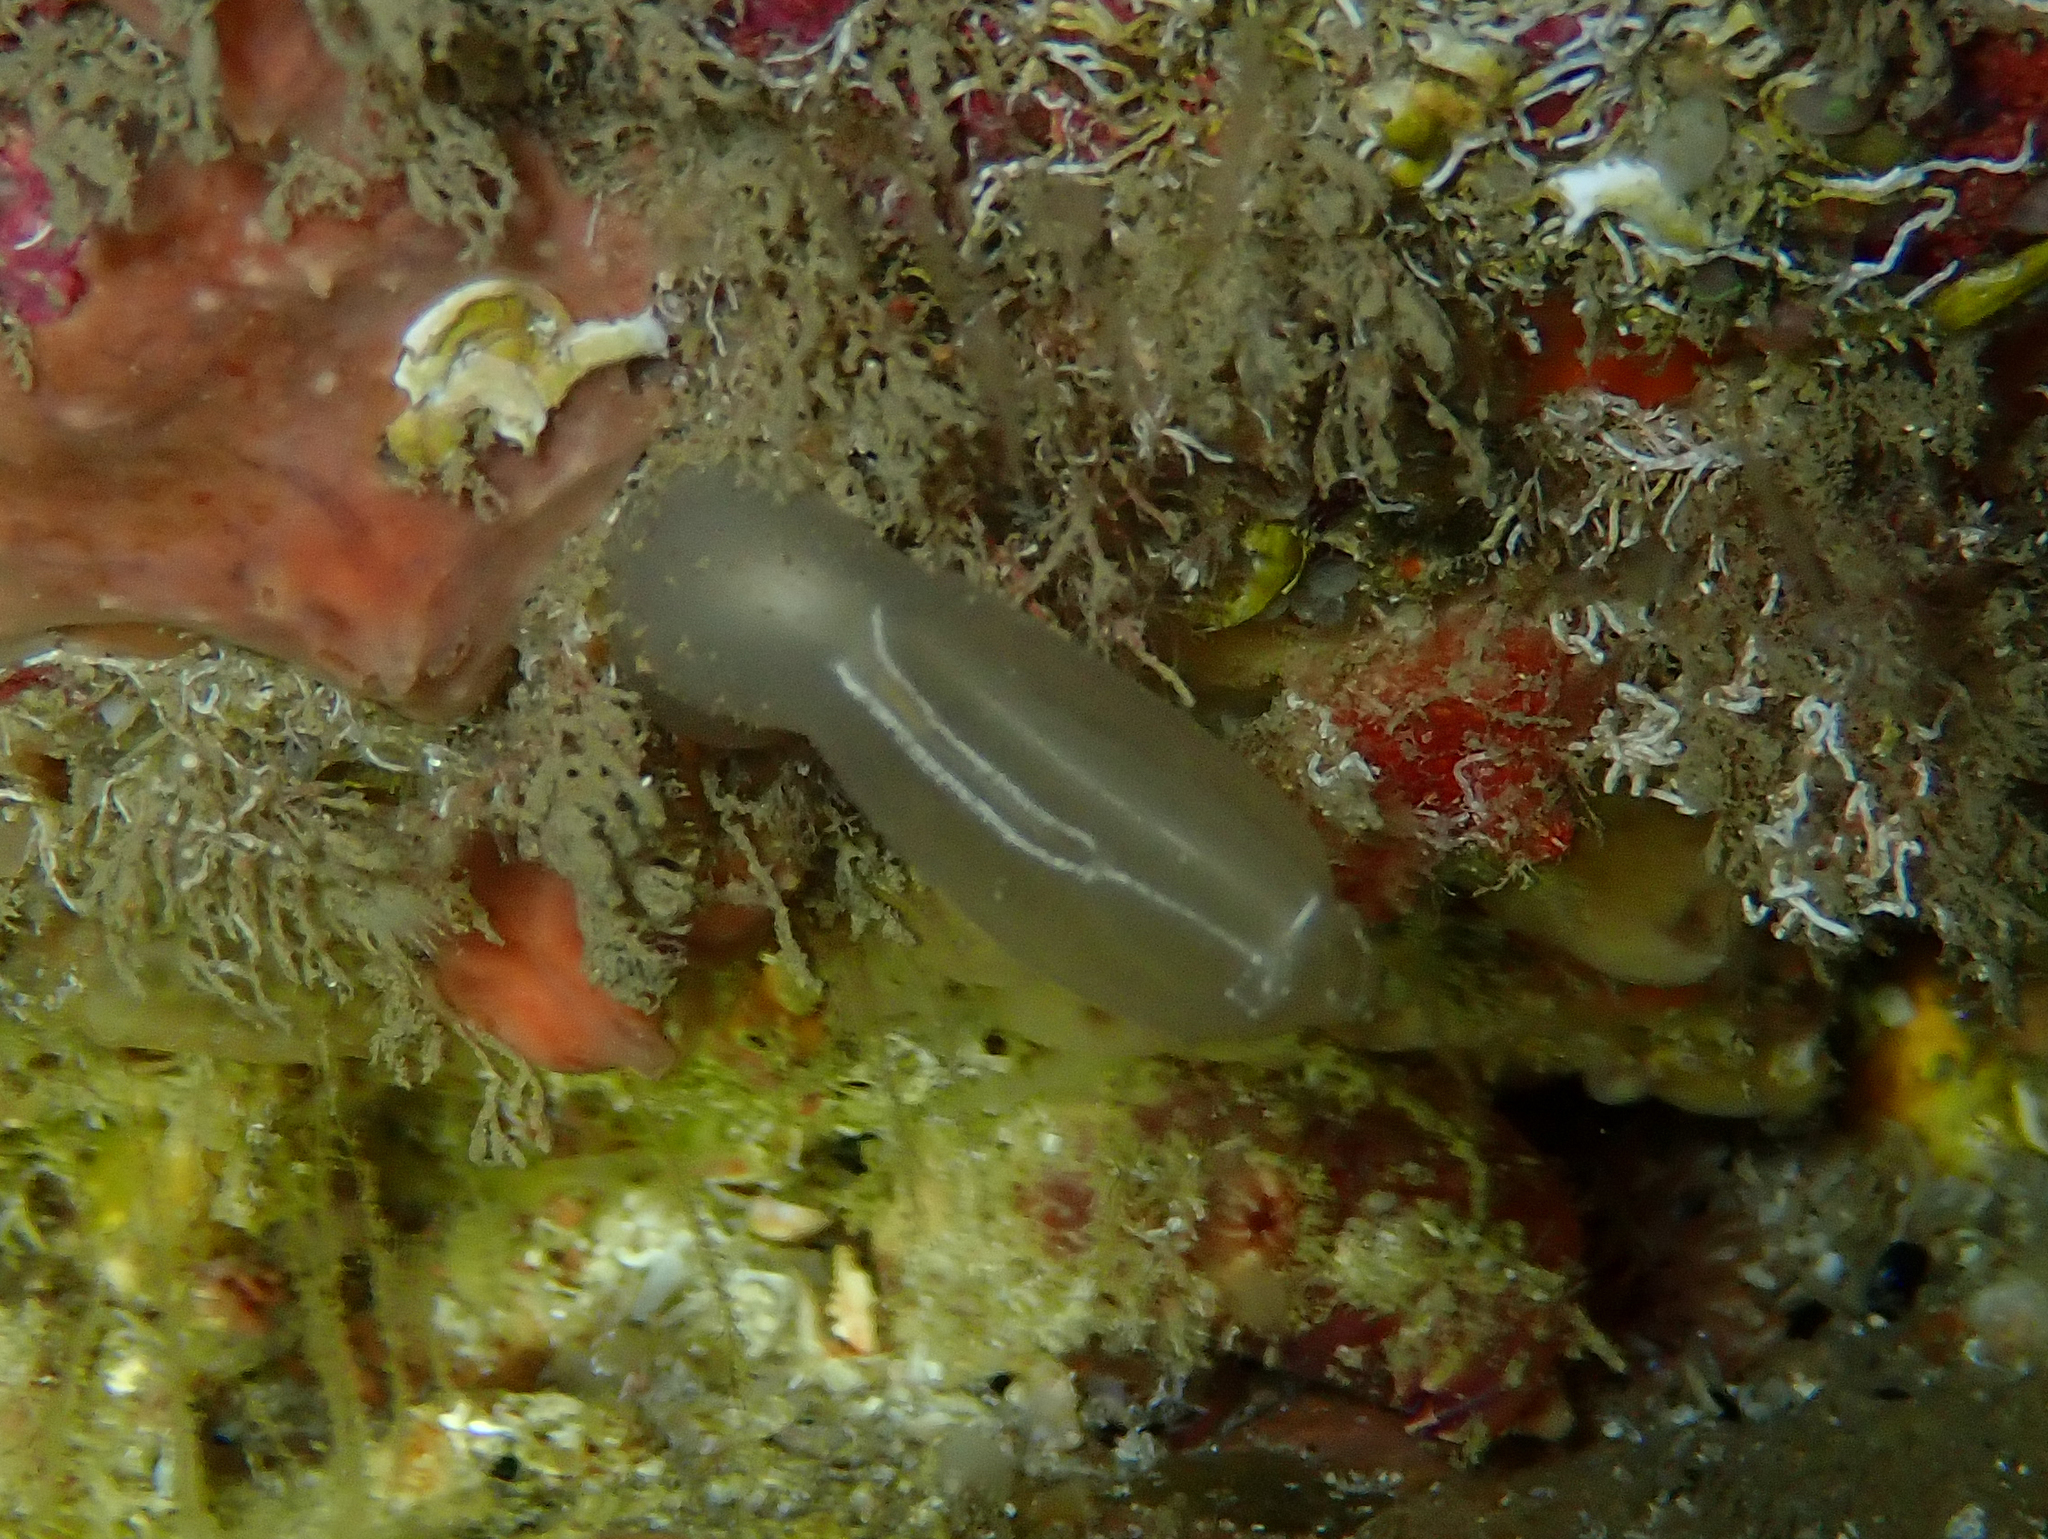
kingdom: Animalia
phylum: Chordata
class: Ascidiacea
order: Aplousobranchia
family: Diazonidae
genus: Diazona
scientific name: Diazona violacea
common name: Football ascidian
